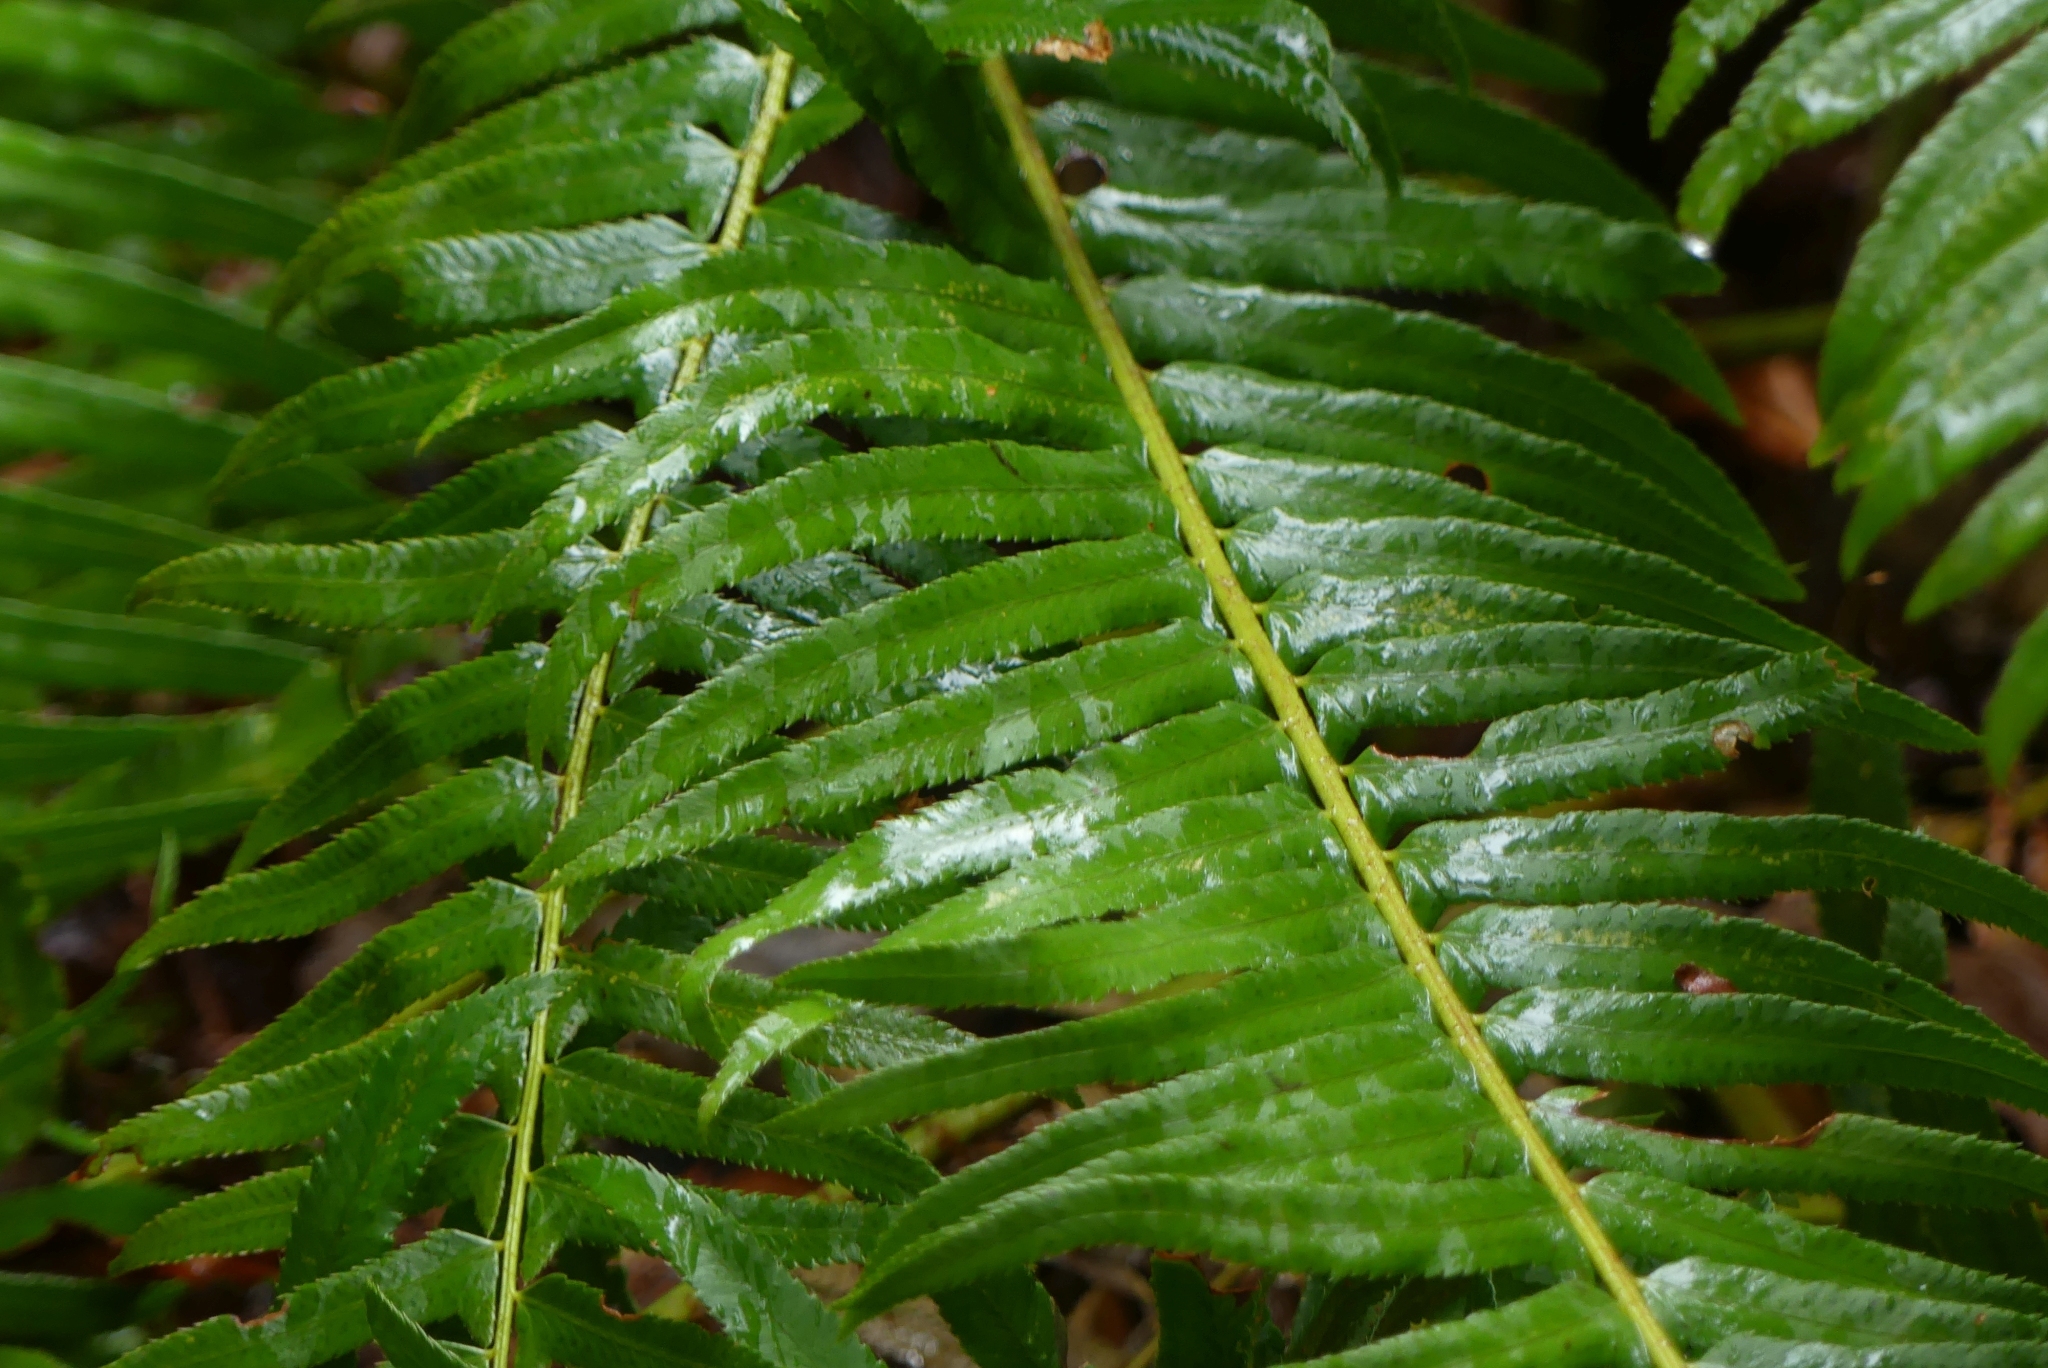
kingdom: Plantae
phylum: Tracheophyta
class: Polypodiopsida
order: Polypodiales
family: Dryopteridaceae
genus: Polystichum
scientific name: Polystichum munitum
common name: Western sword-fern
